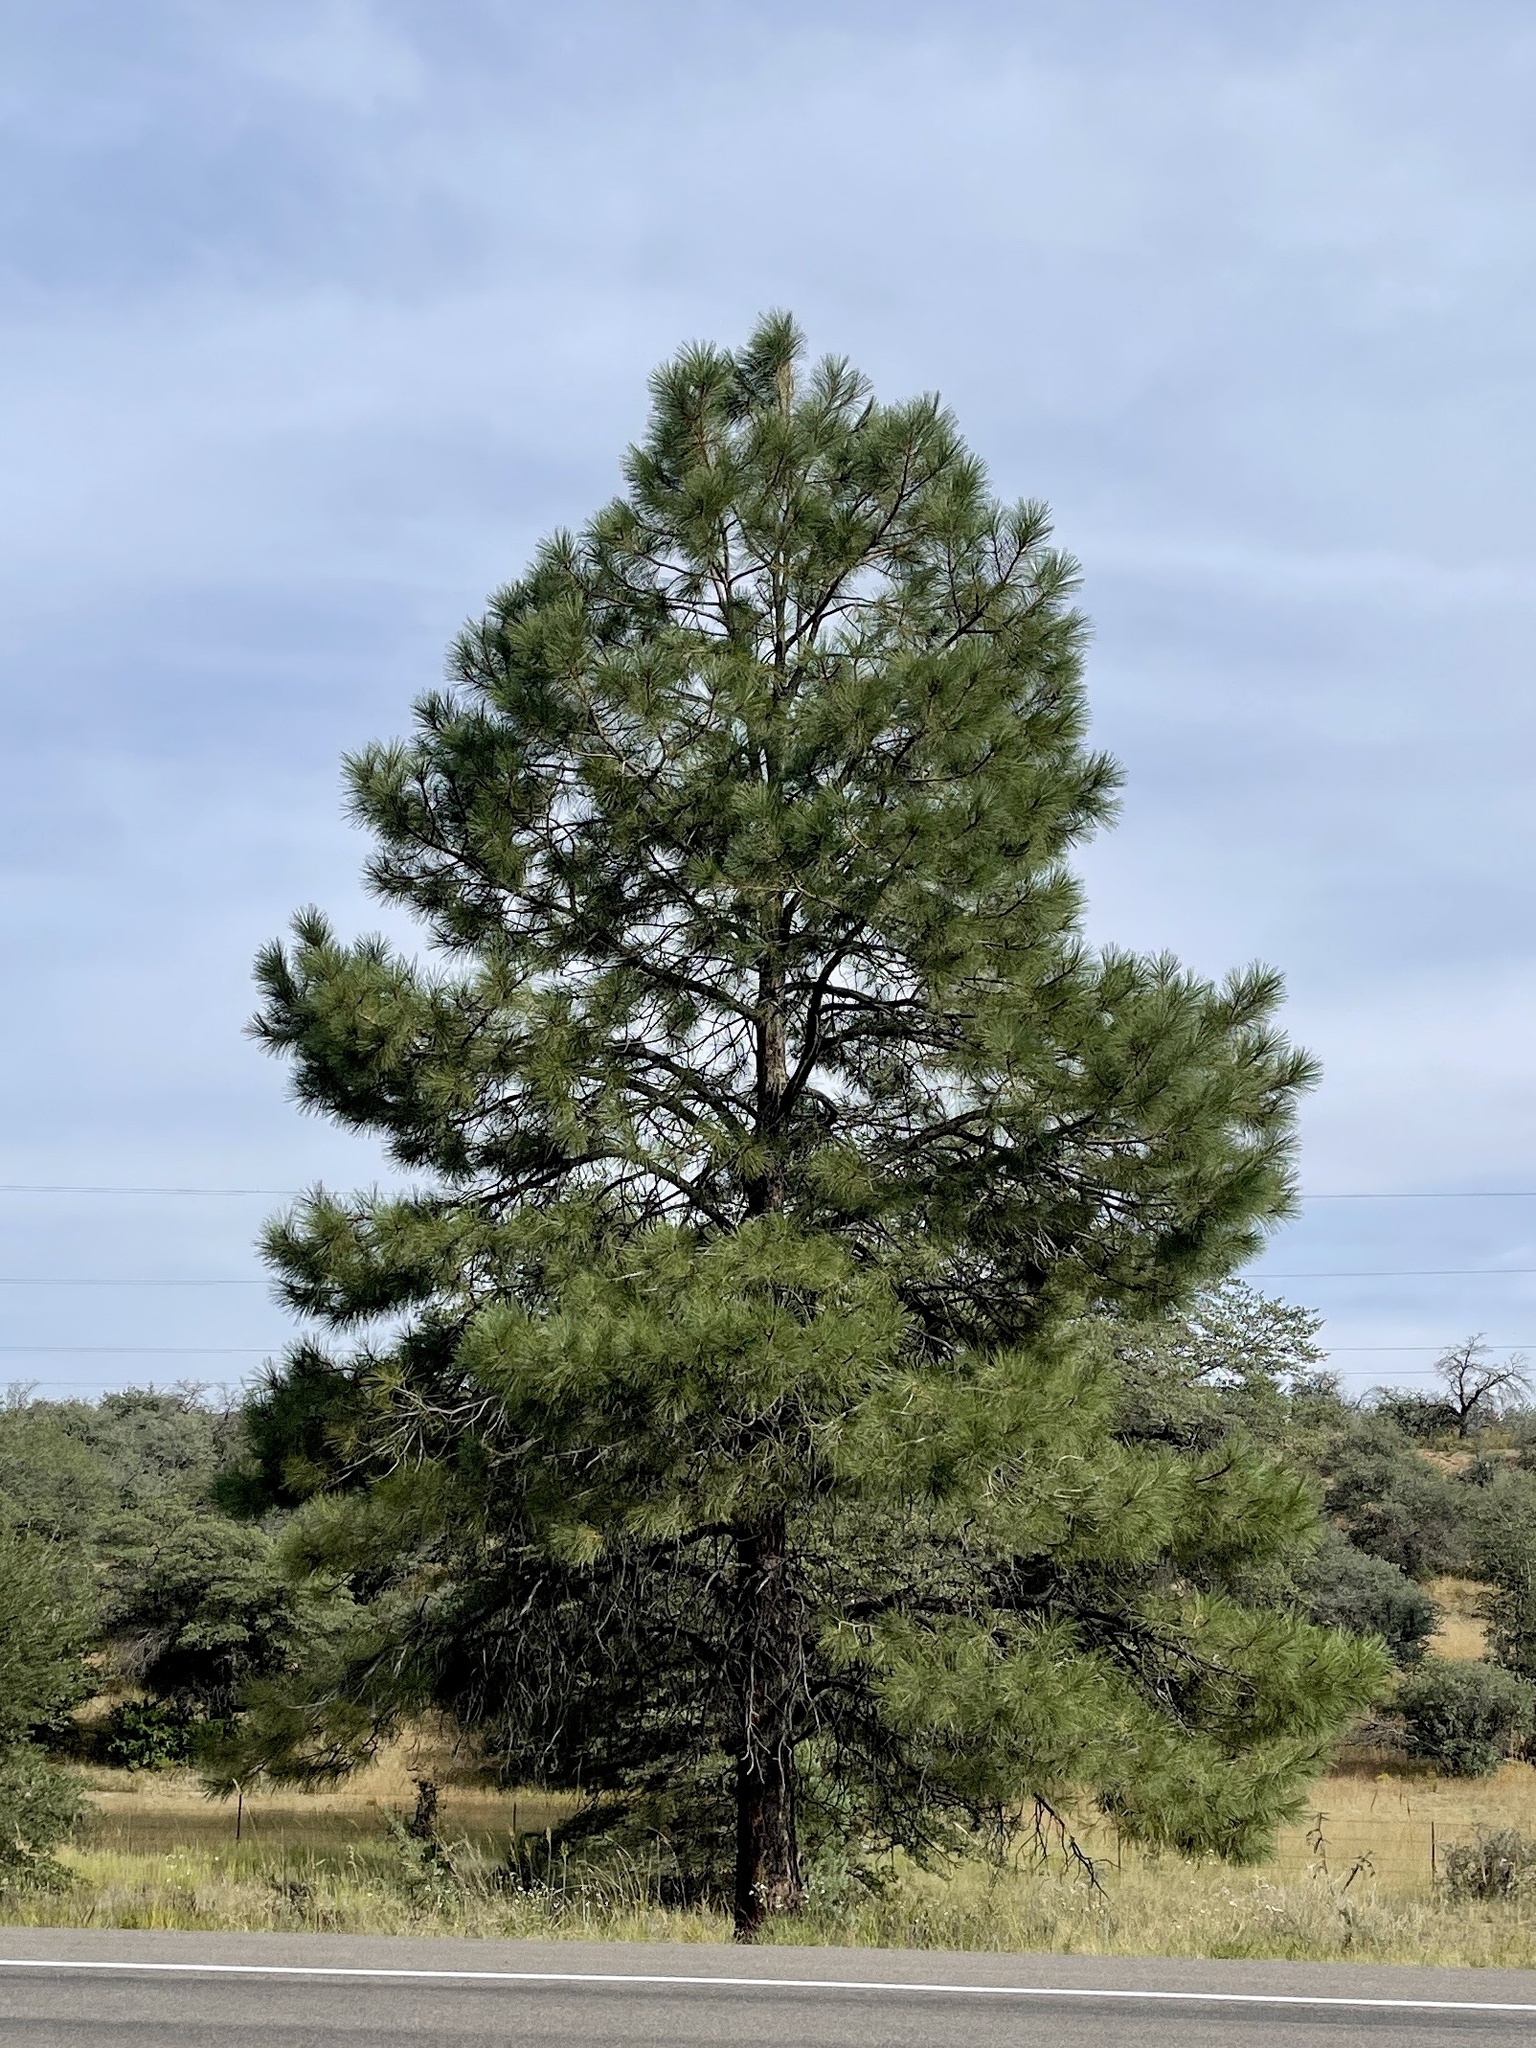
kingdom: Plantae
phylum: Tracheophyta
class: Pinopsida
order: Pinales
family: Pinaceae
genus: Pinus
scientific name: Pinus ponderosa
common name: Western yellow-pine
